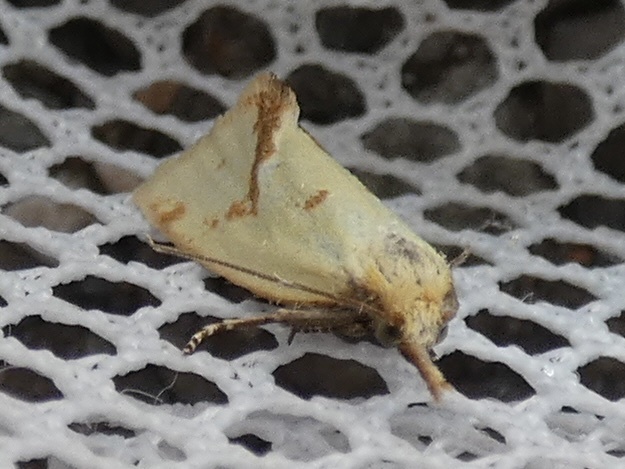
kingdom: Animalia
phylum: Arthropoda
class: Insecta
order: Lepidoptera
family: Tortricidae
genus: Agapeta
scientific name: Agapeta hamana
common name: Common yellow conch
